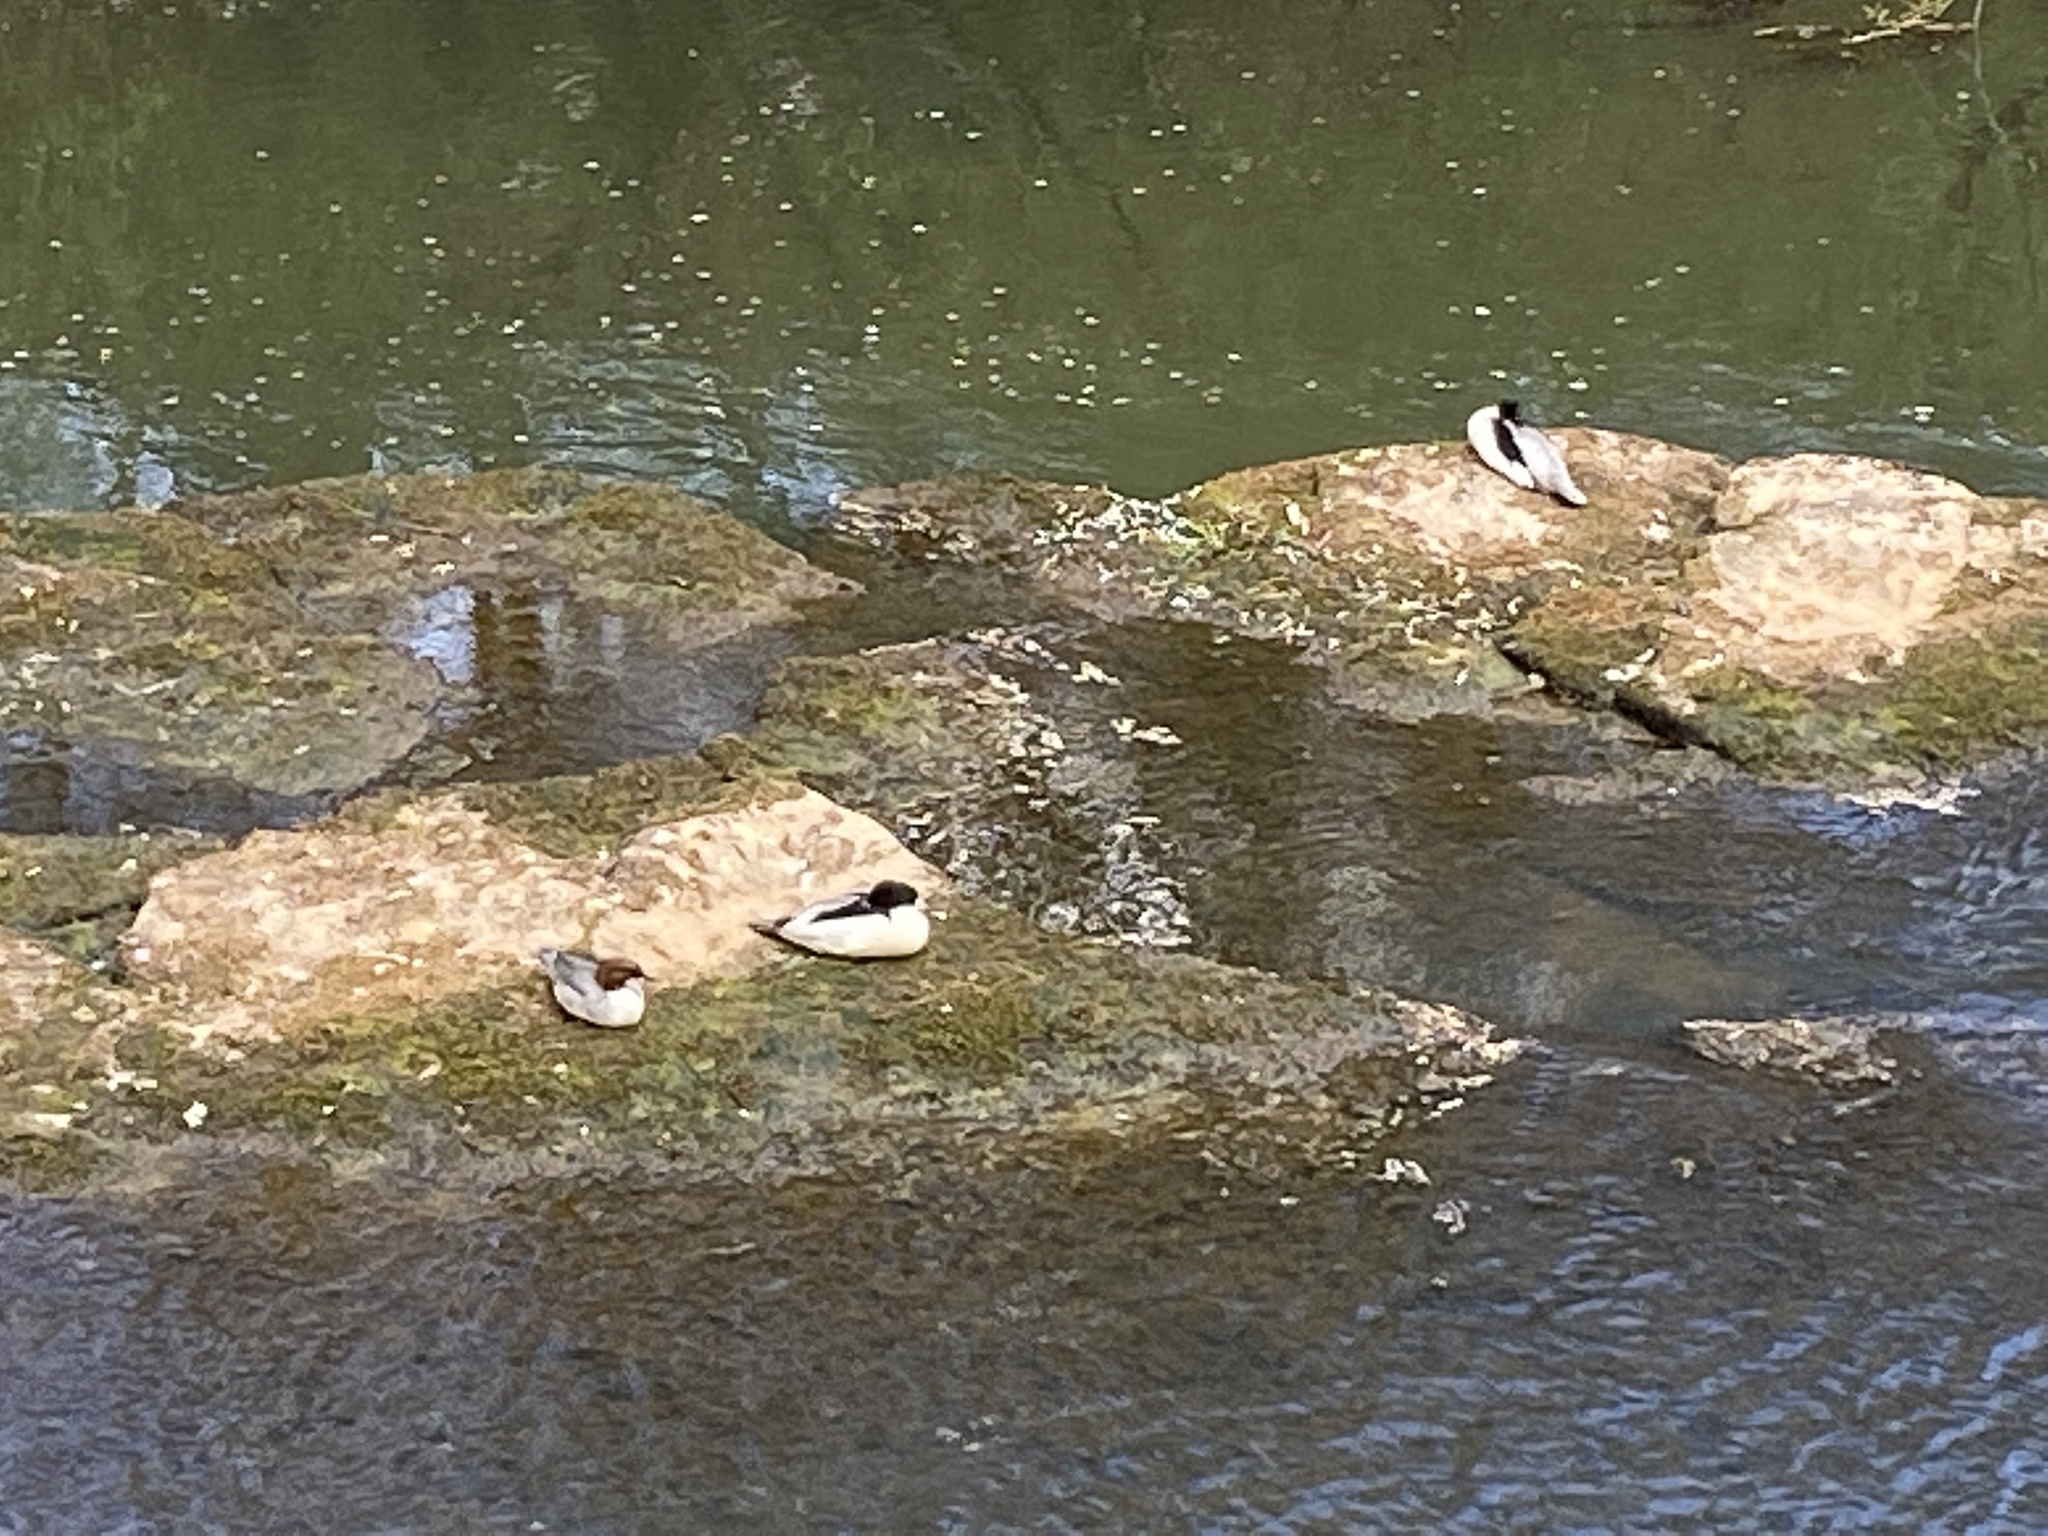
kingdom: Animalia
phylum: Chordata
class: Aves
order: Anseriformes
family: Anatidae
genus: Mergus
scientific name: Mergus merganser
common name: Common merganser
